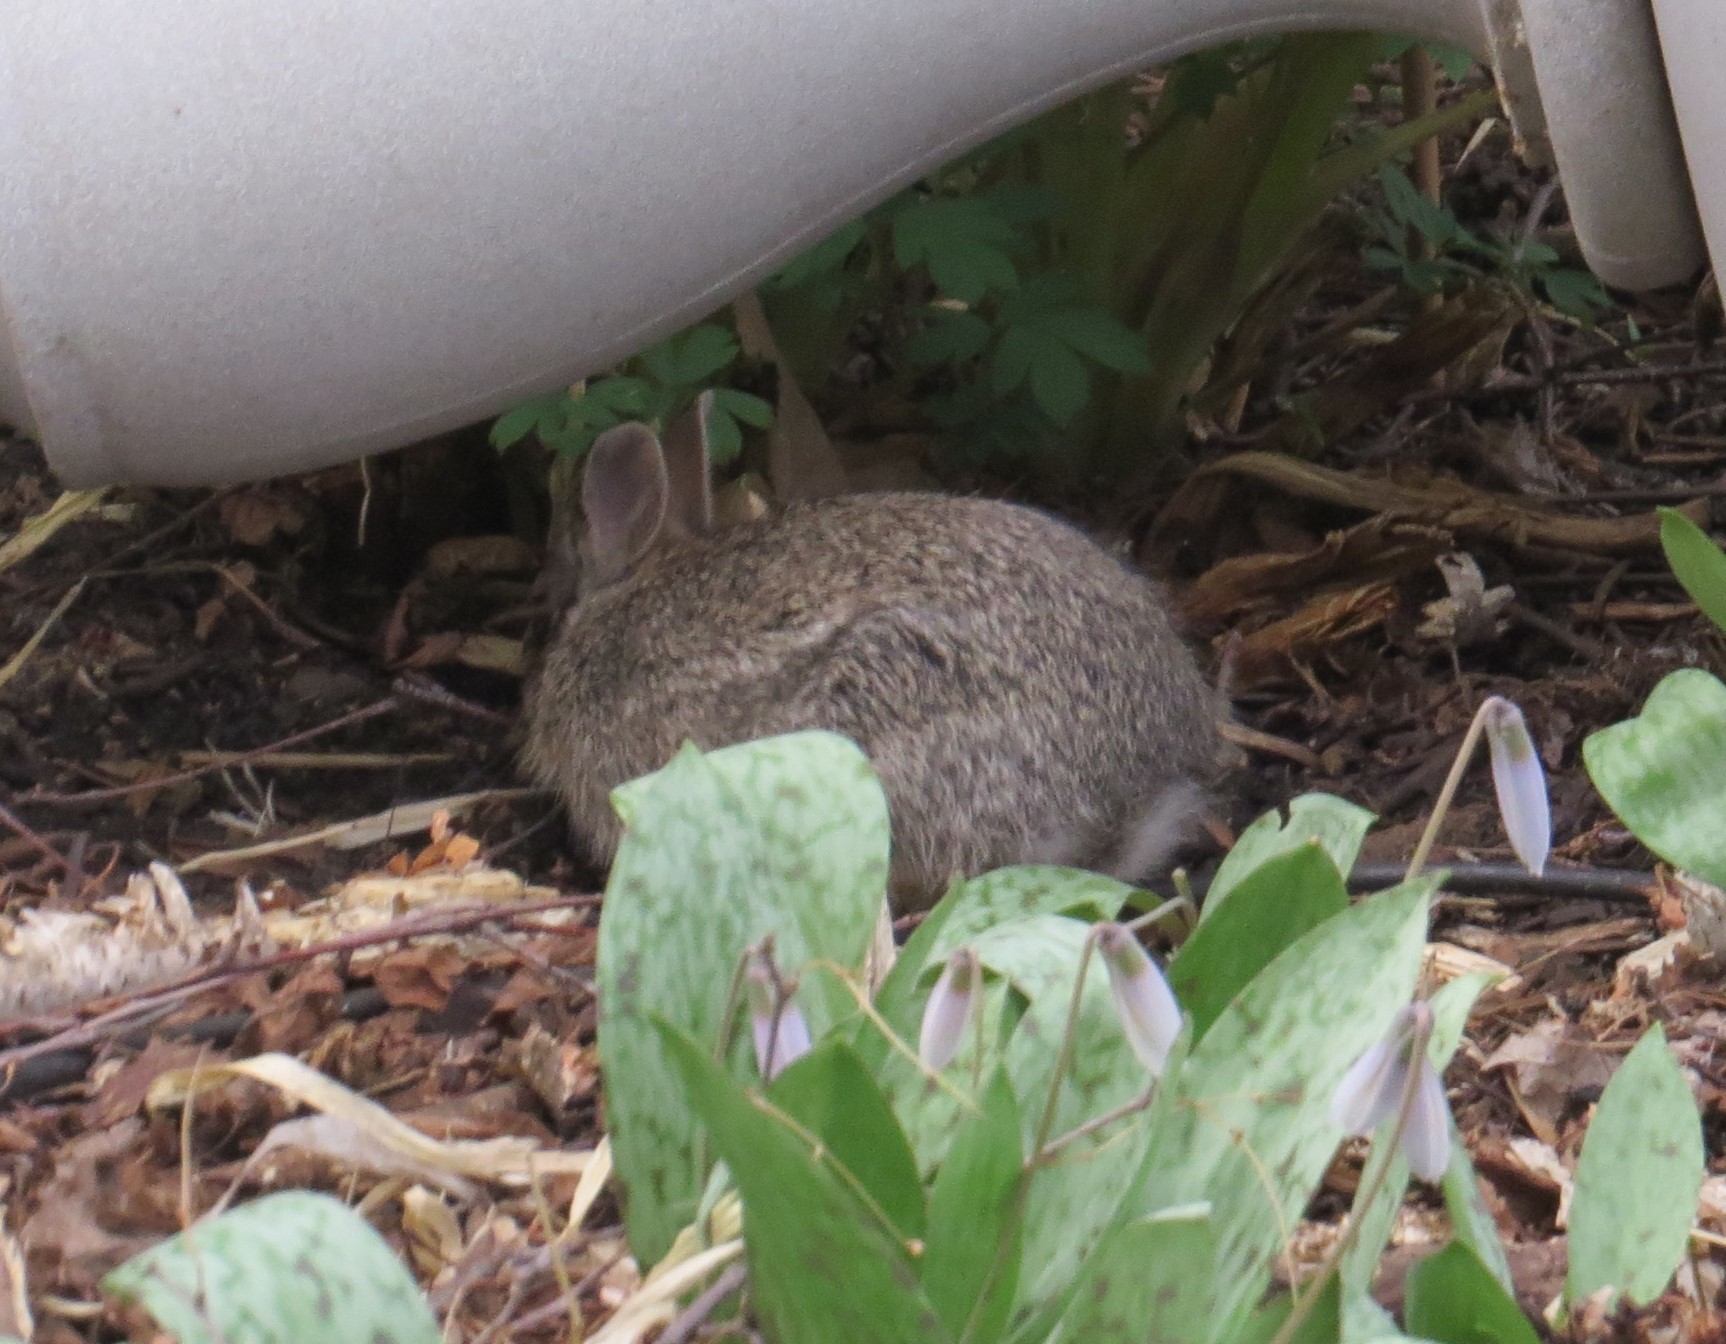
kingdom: Animalia
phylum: Chordata
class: Mammalia
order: Lagomorpha
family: Leporidae
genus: Sylvilagus
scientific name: Sylvilagus floridanus
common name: Eastern cottontail
